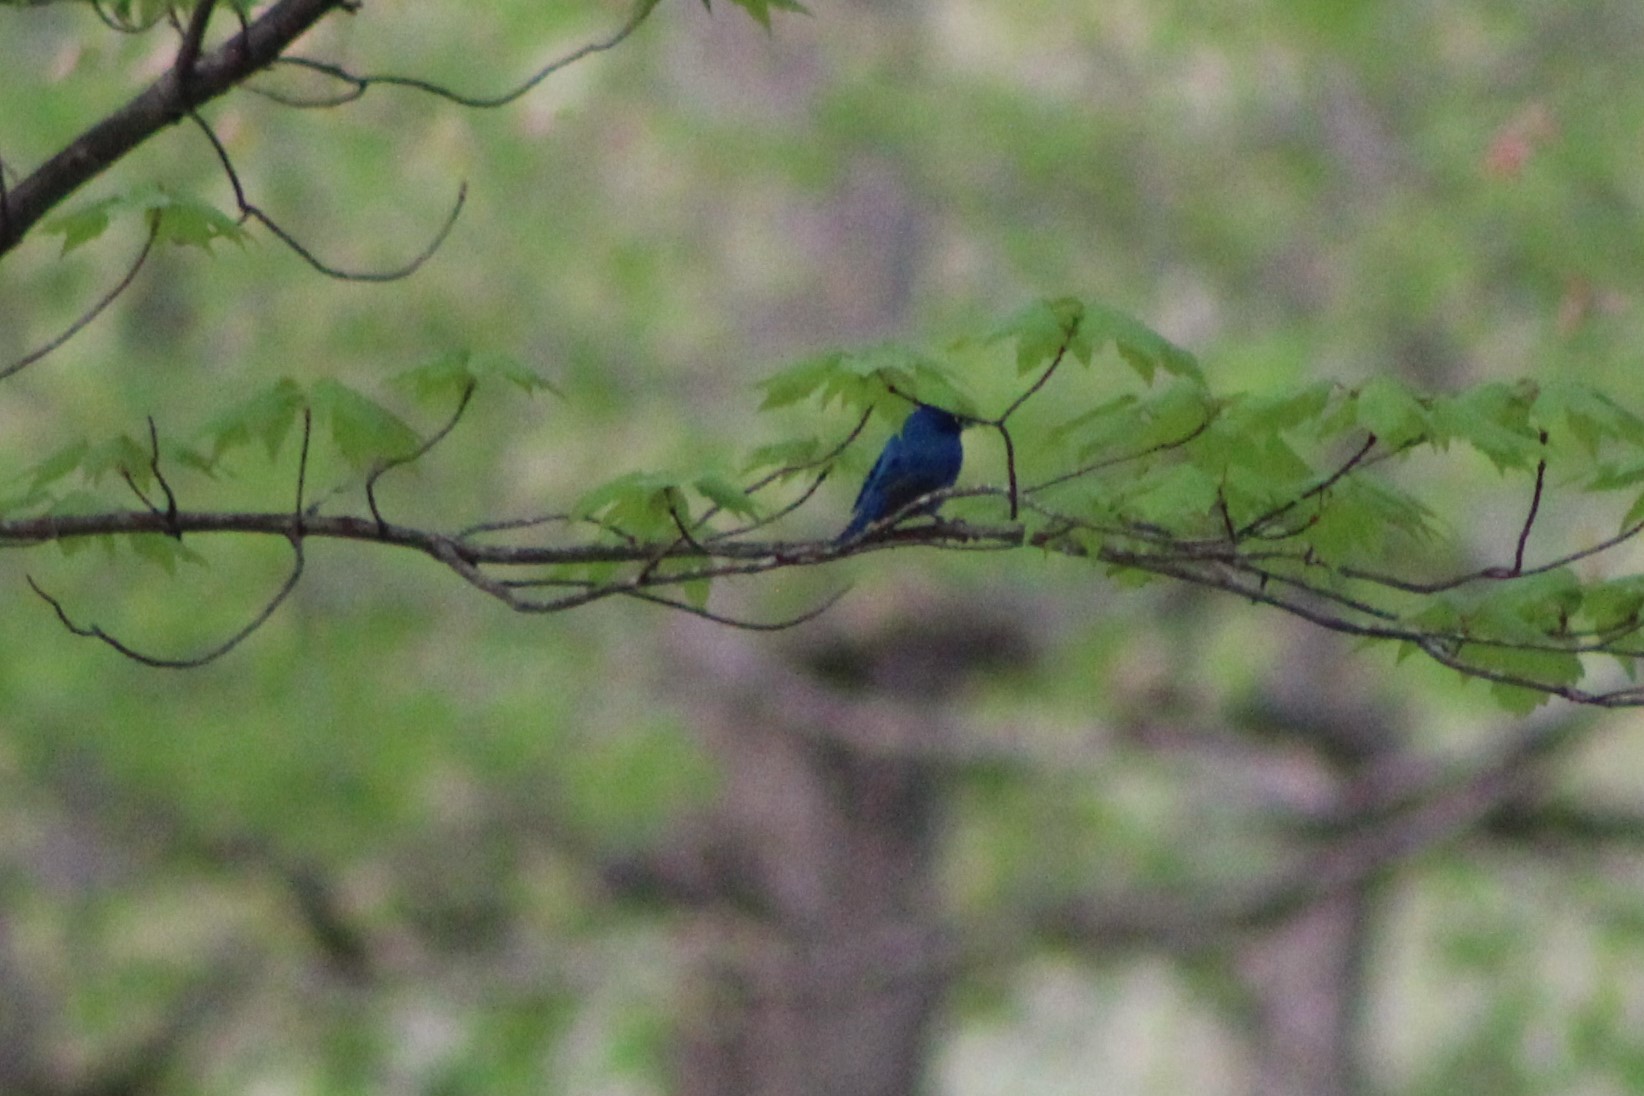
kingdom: Animalia
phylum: Chordata
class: Aves
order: Passeriformes
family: Cardinalidae
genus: Passerina
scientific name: Passerina cyanea
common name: Indigo bunting
